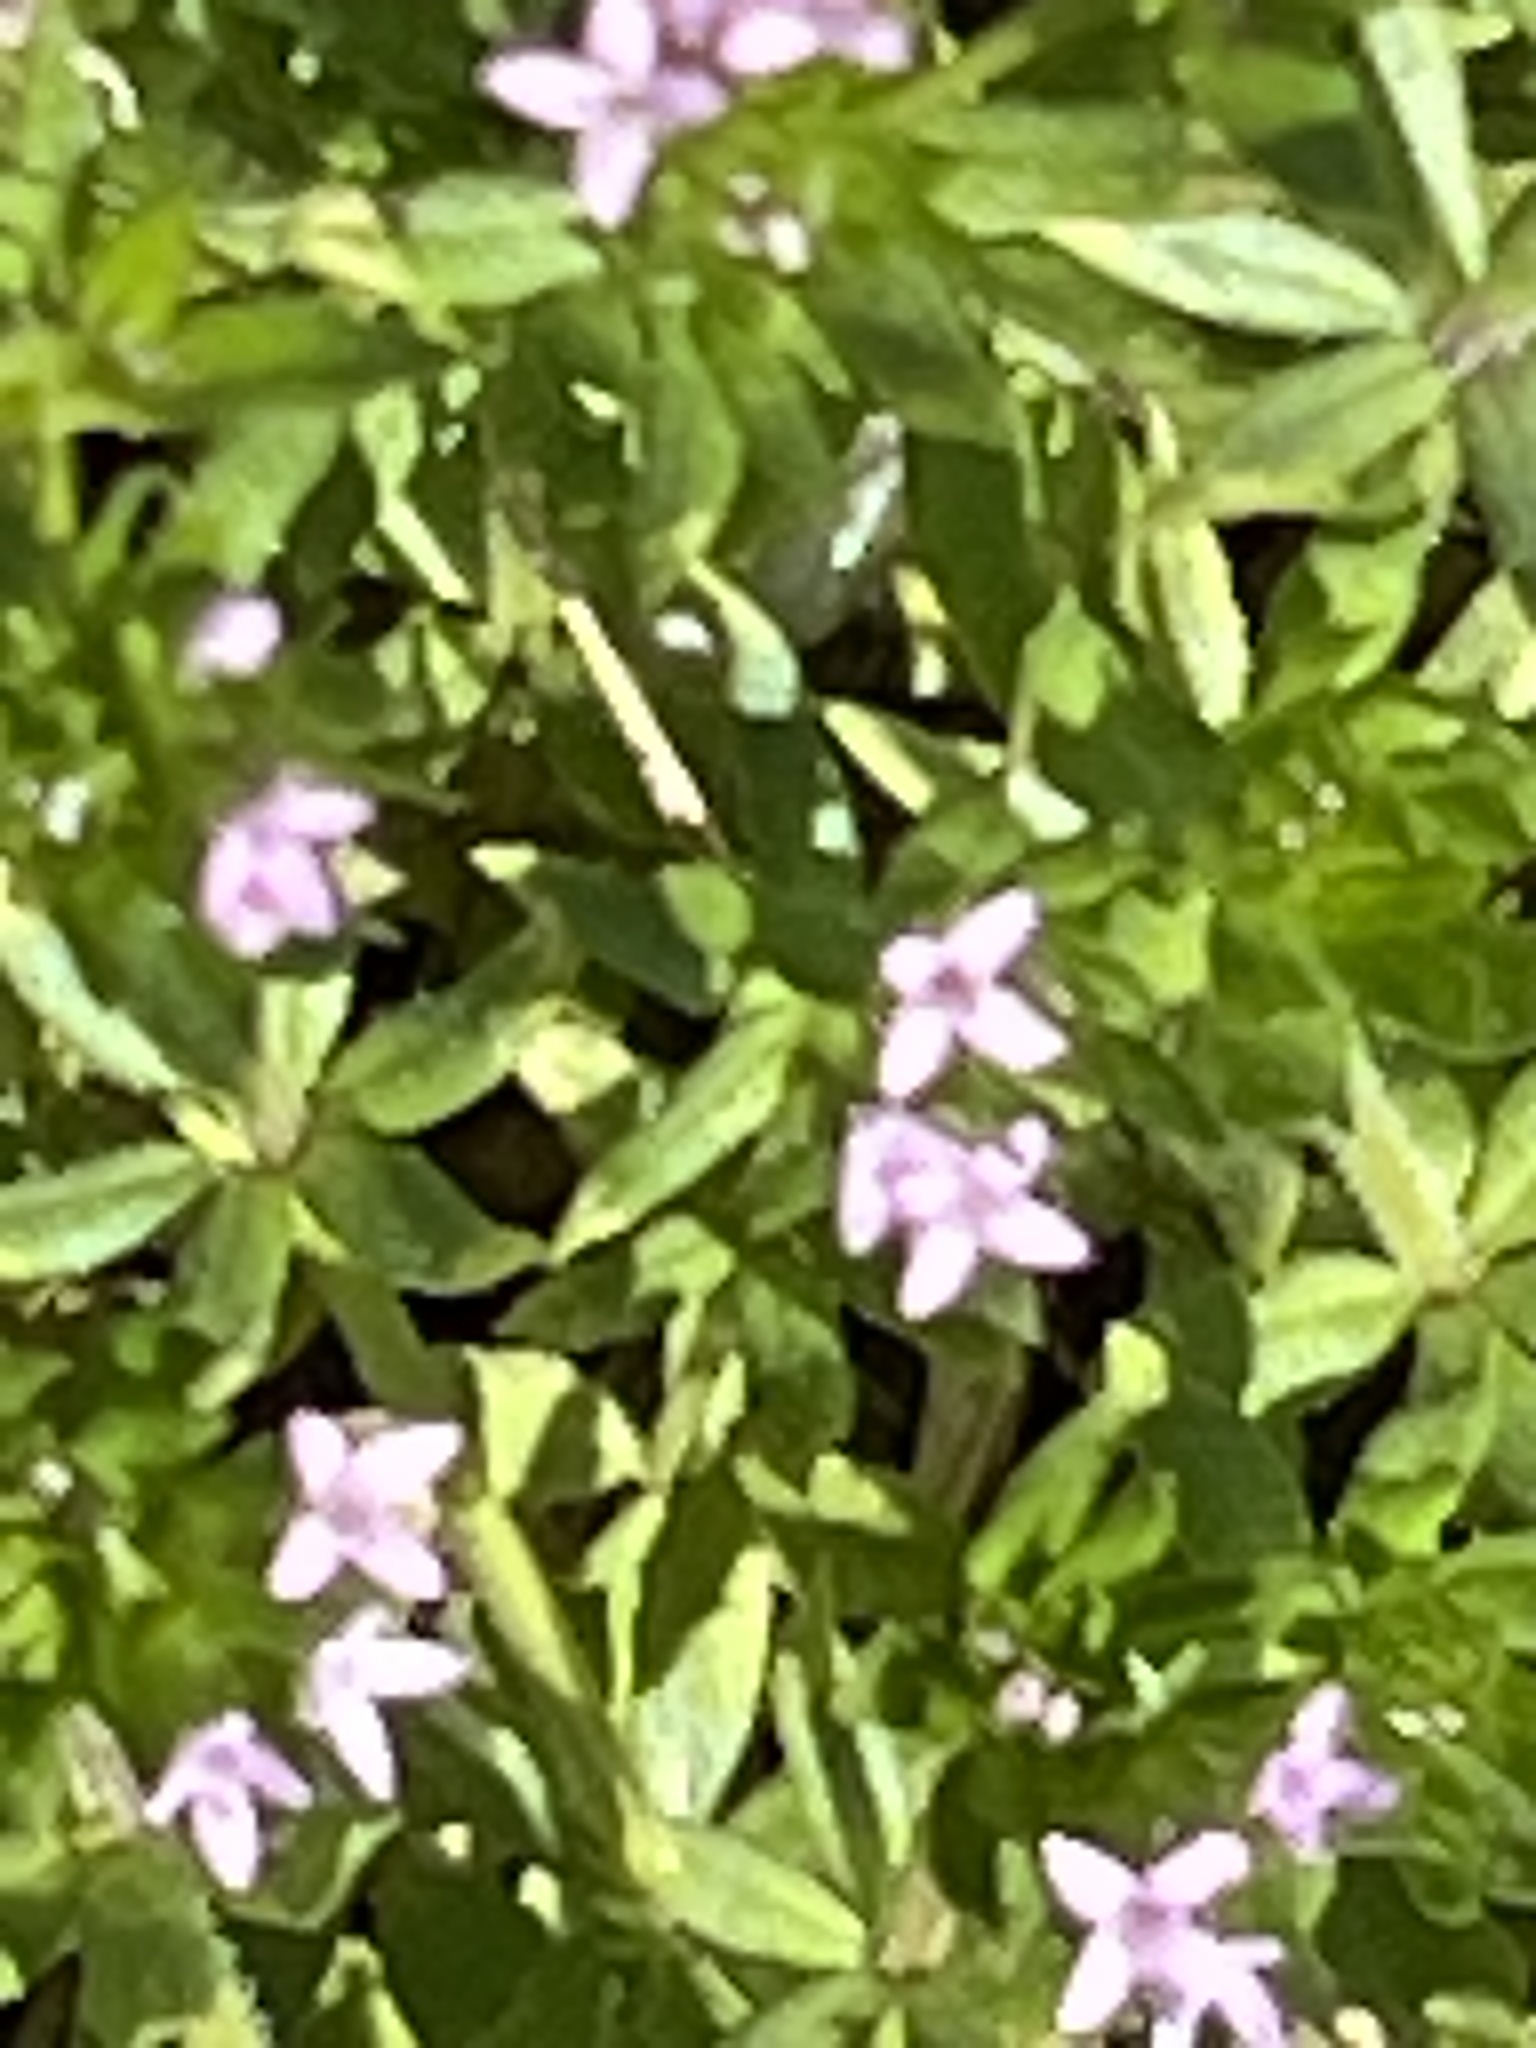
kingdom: Plantae
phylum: Tracheophyta
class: Magnoliopsida
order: Gentianales
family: Rubiaceae
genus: Sherardia
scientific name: Sherardia arvensis
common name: Field madder
